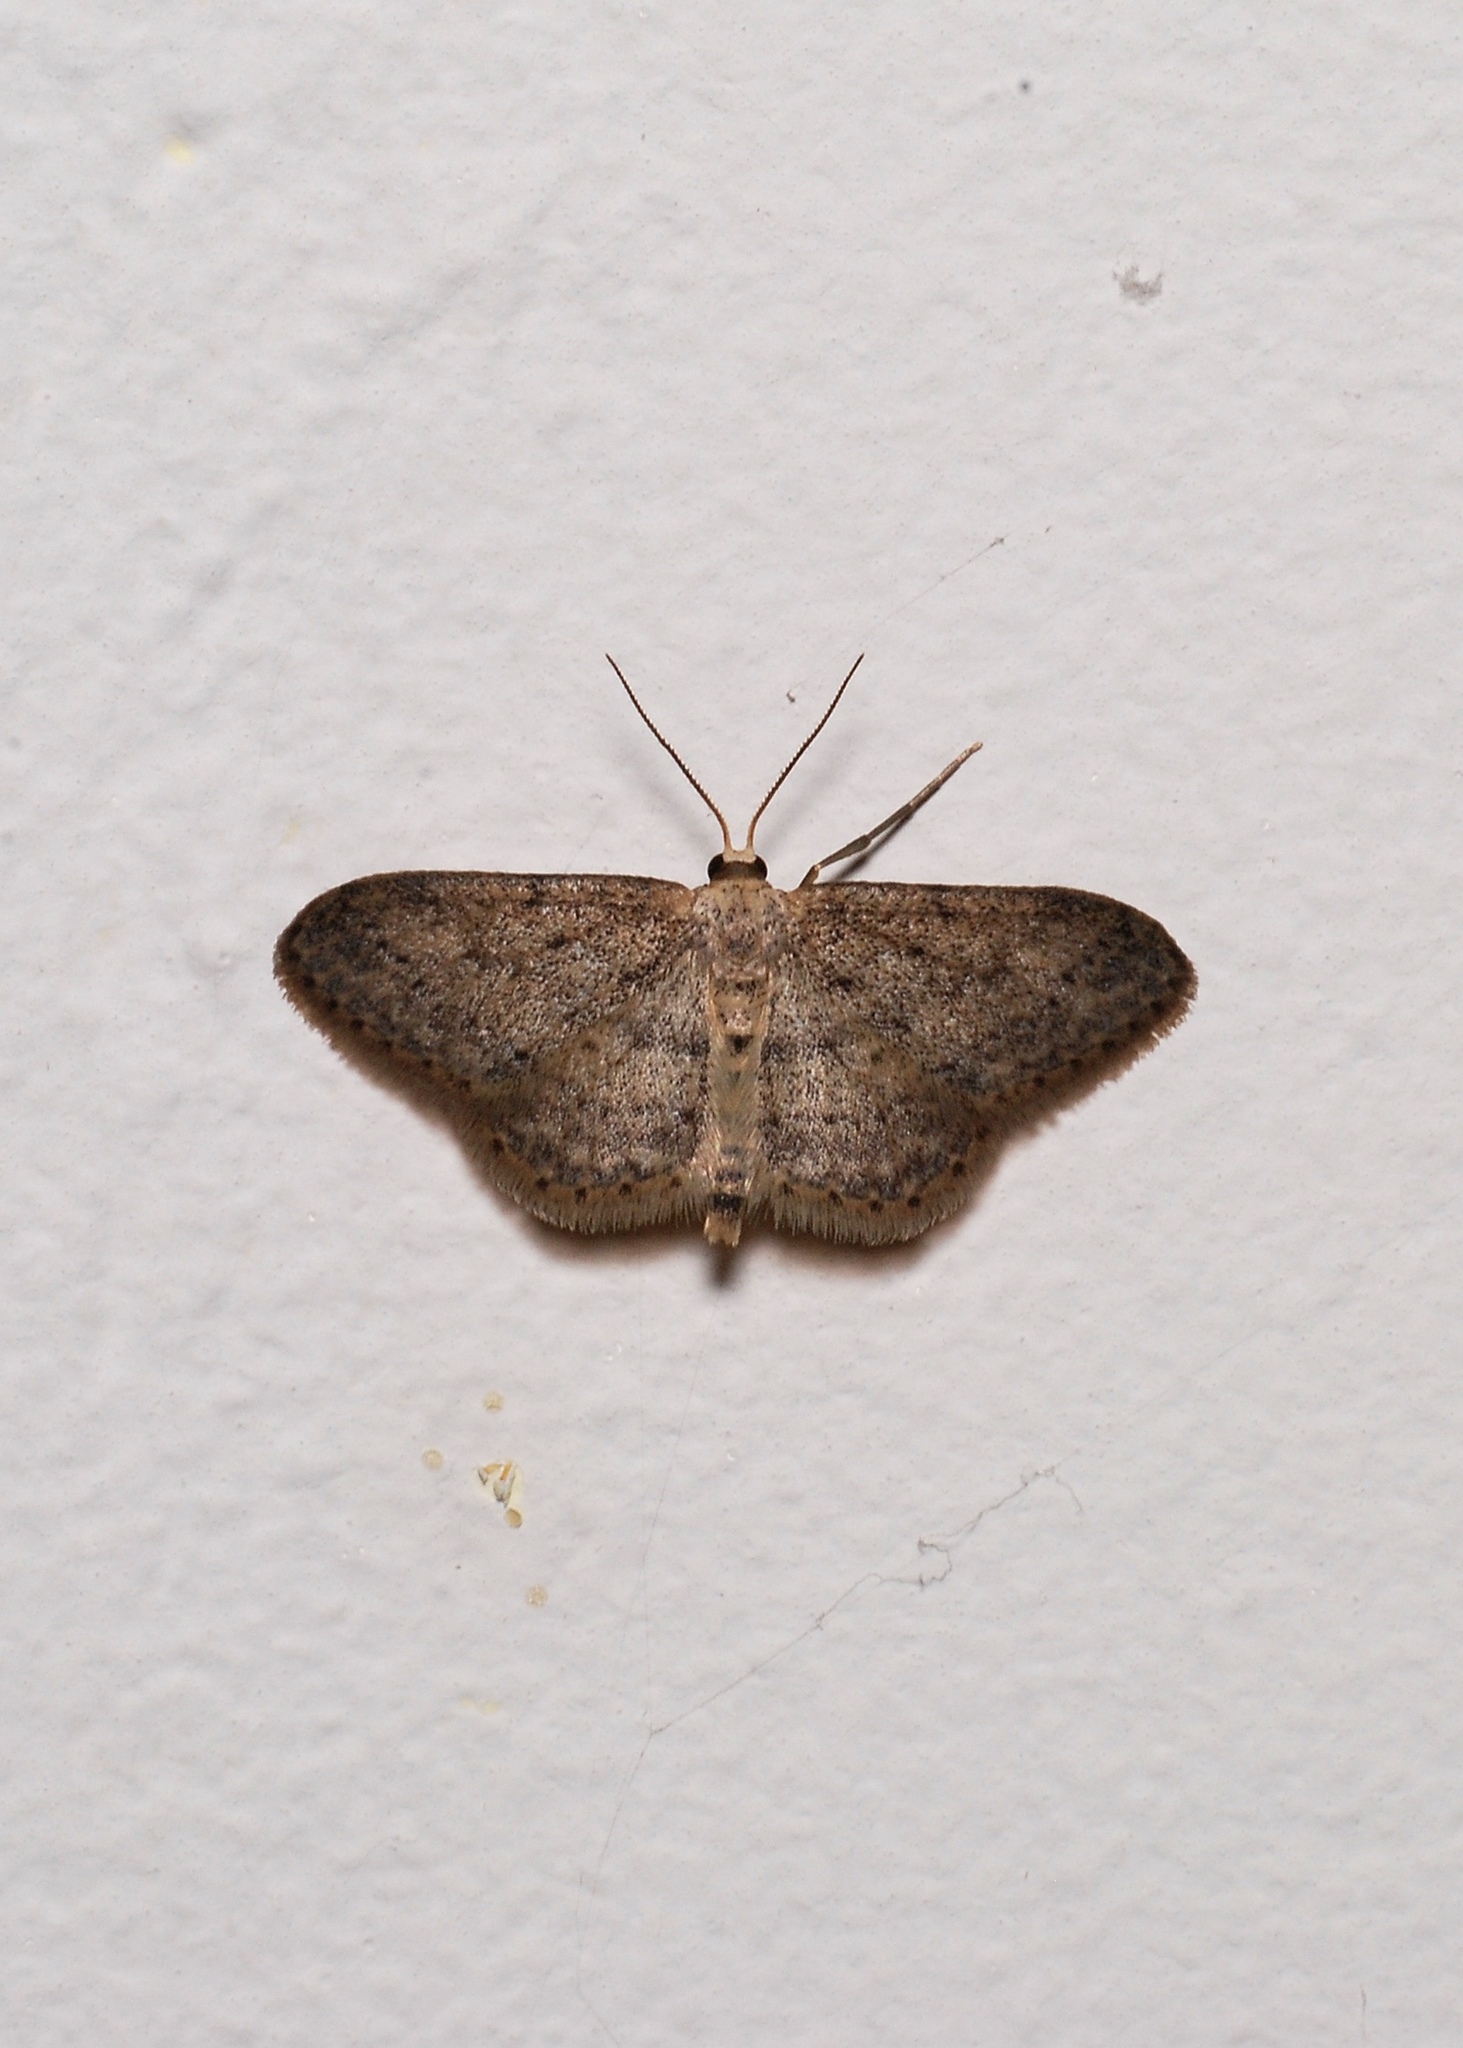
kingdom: Animalia
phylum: Arthropoda
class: Insecta
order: Lepidoptera
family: Geometridae
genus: Idaea
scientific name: Idaea seriata
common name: Small dusty wave
